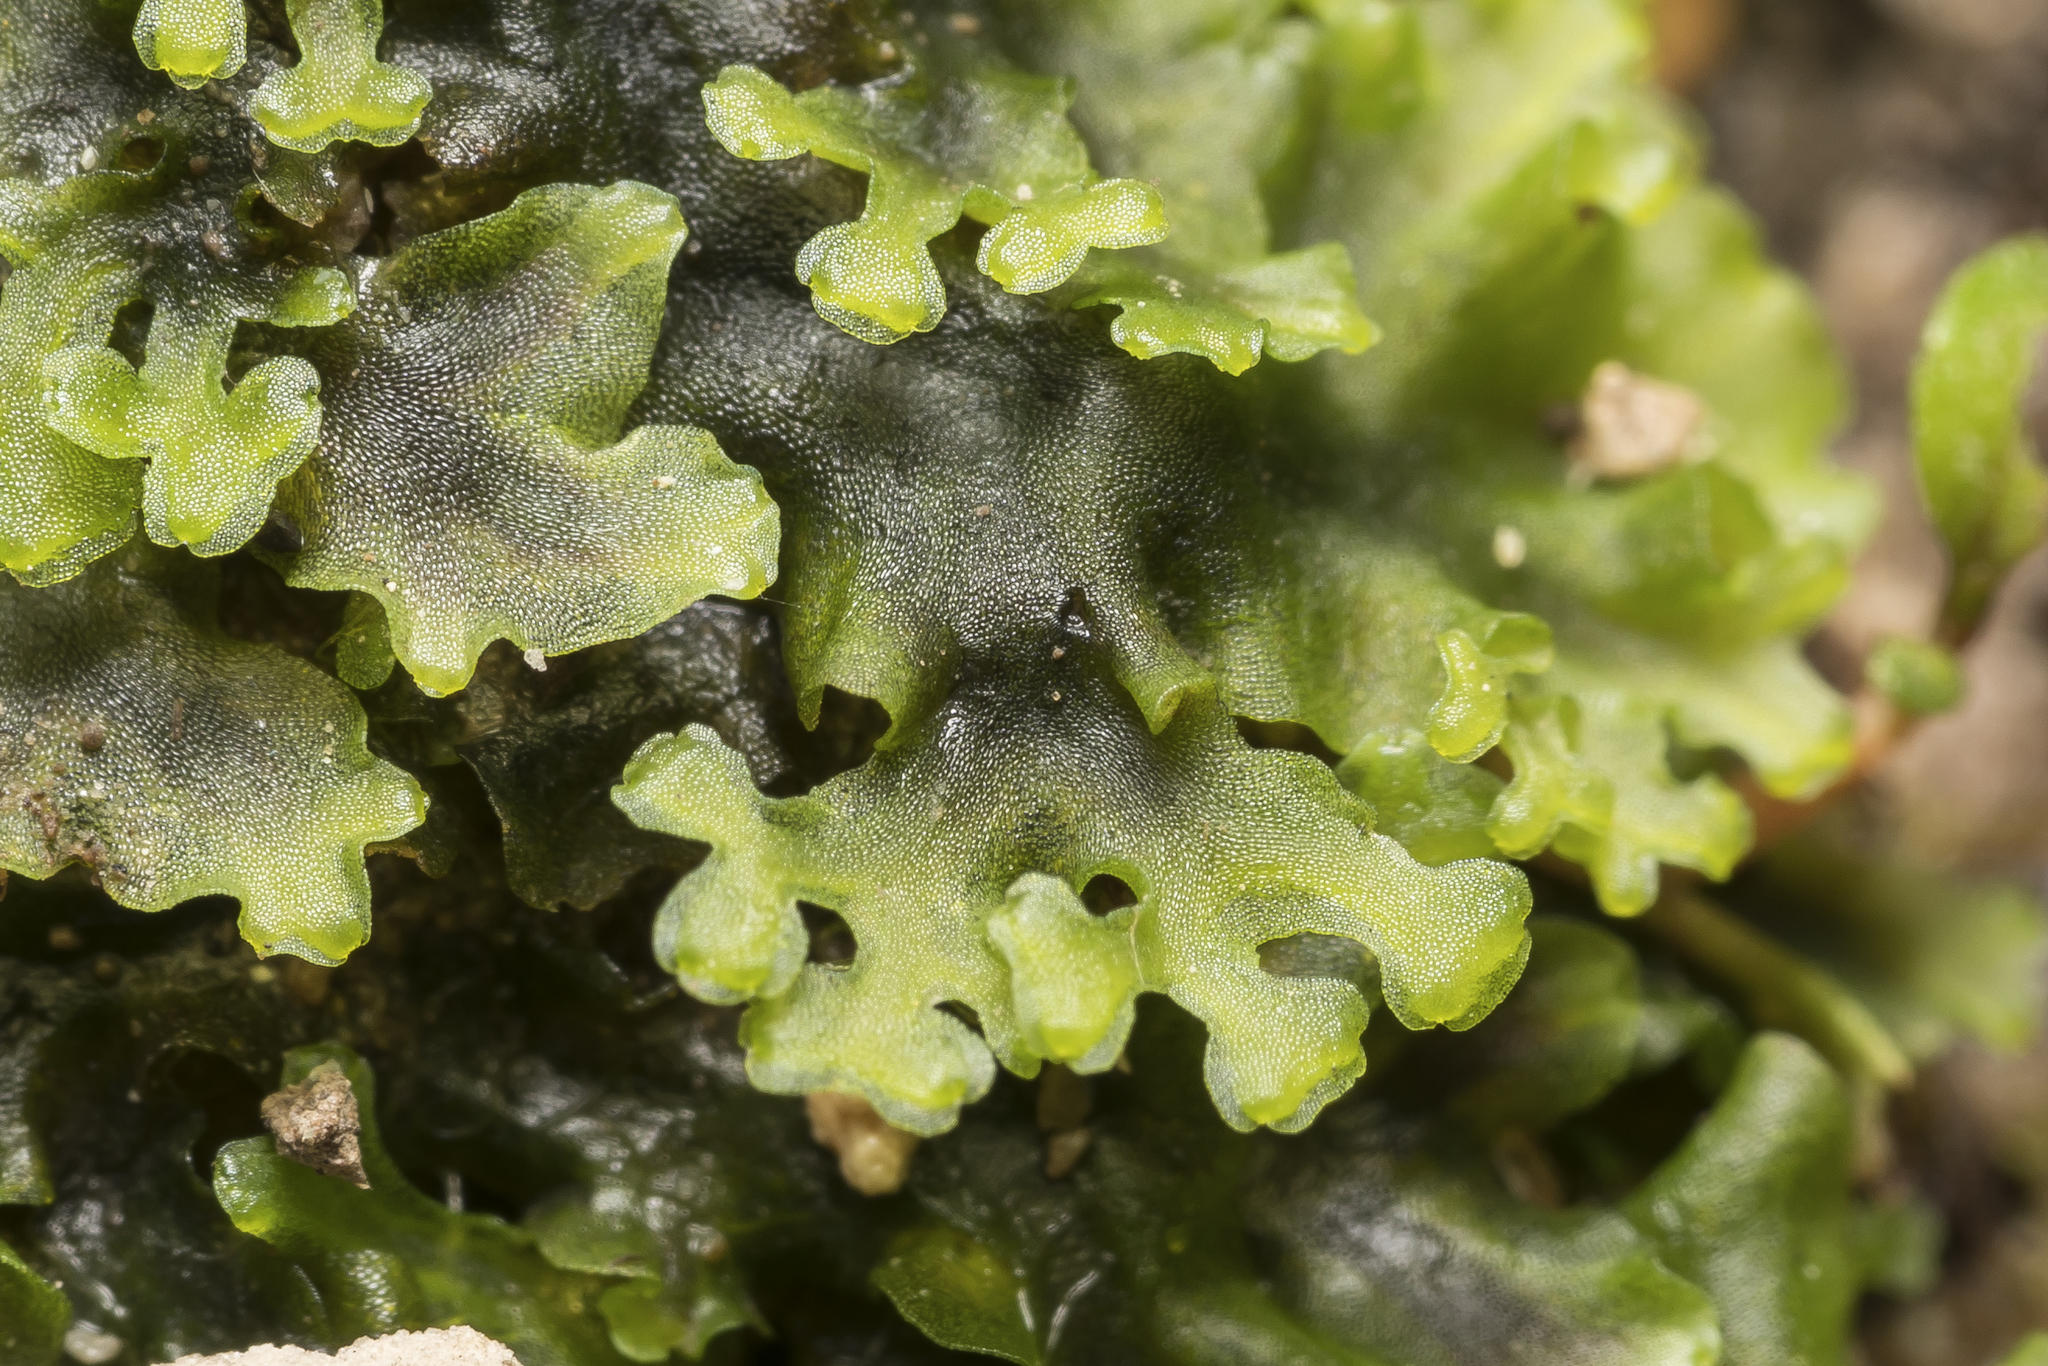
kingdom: Plantae
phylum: Marchantiophyta
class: Jungermanniopsida
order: Pelliales
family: Pelliaceae
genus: Apopellia
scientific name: Apopellia endiviifolia
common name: Endive pellia
